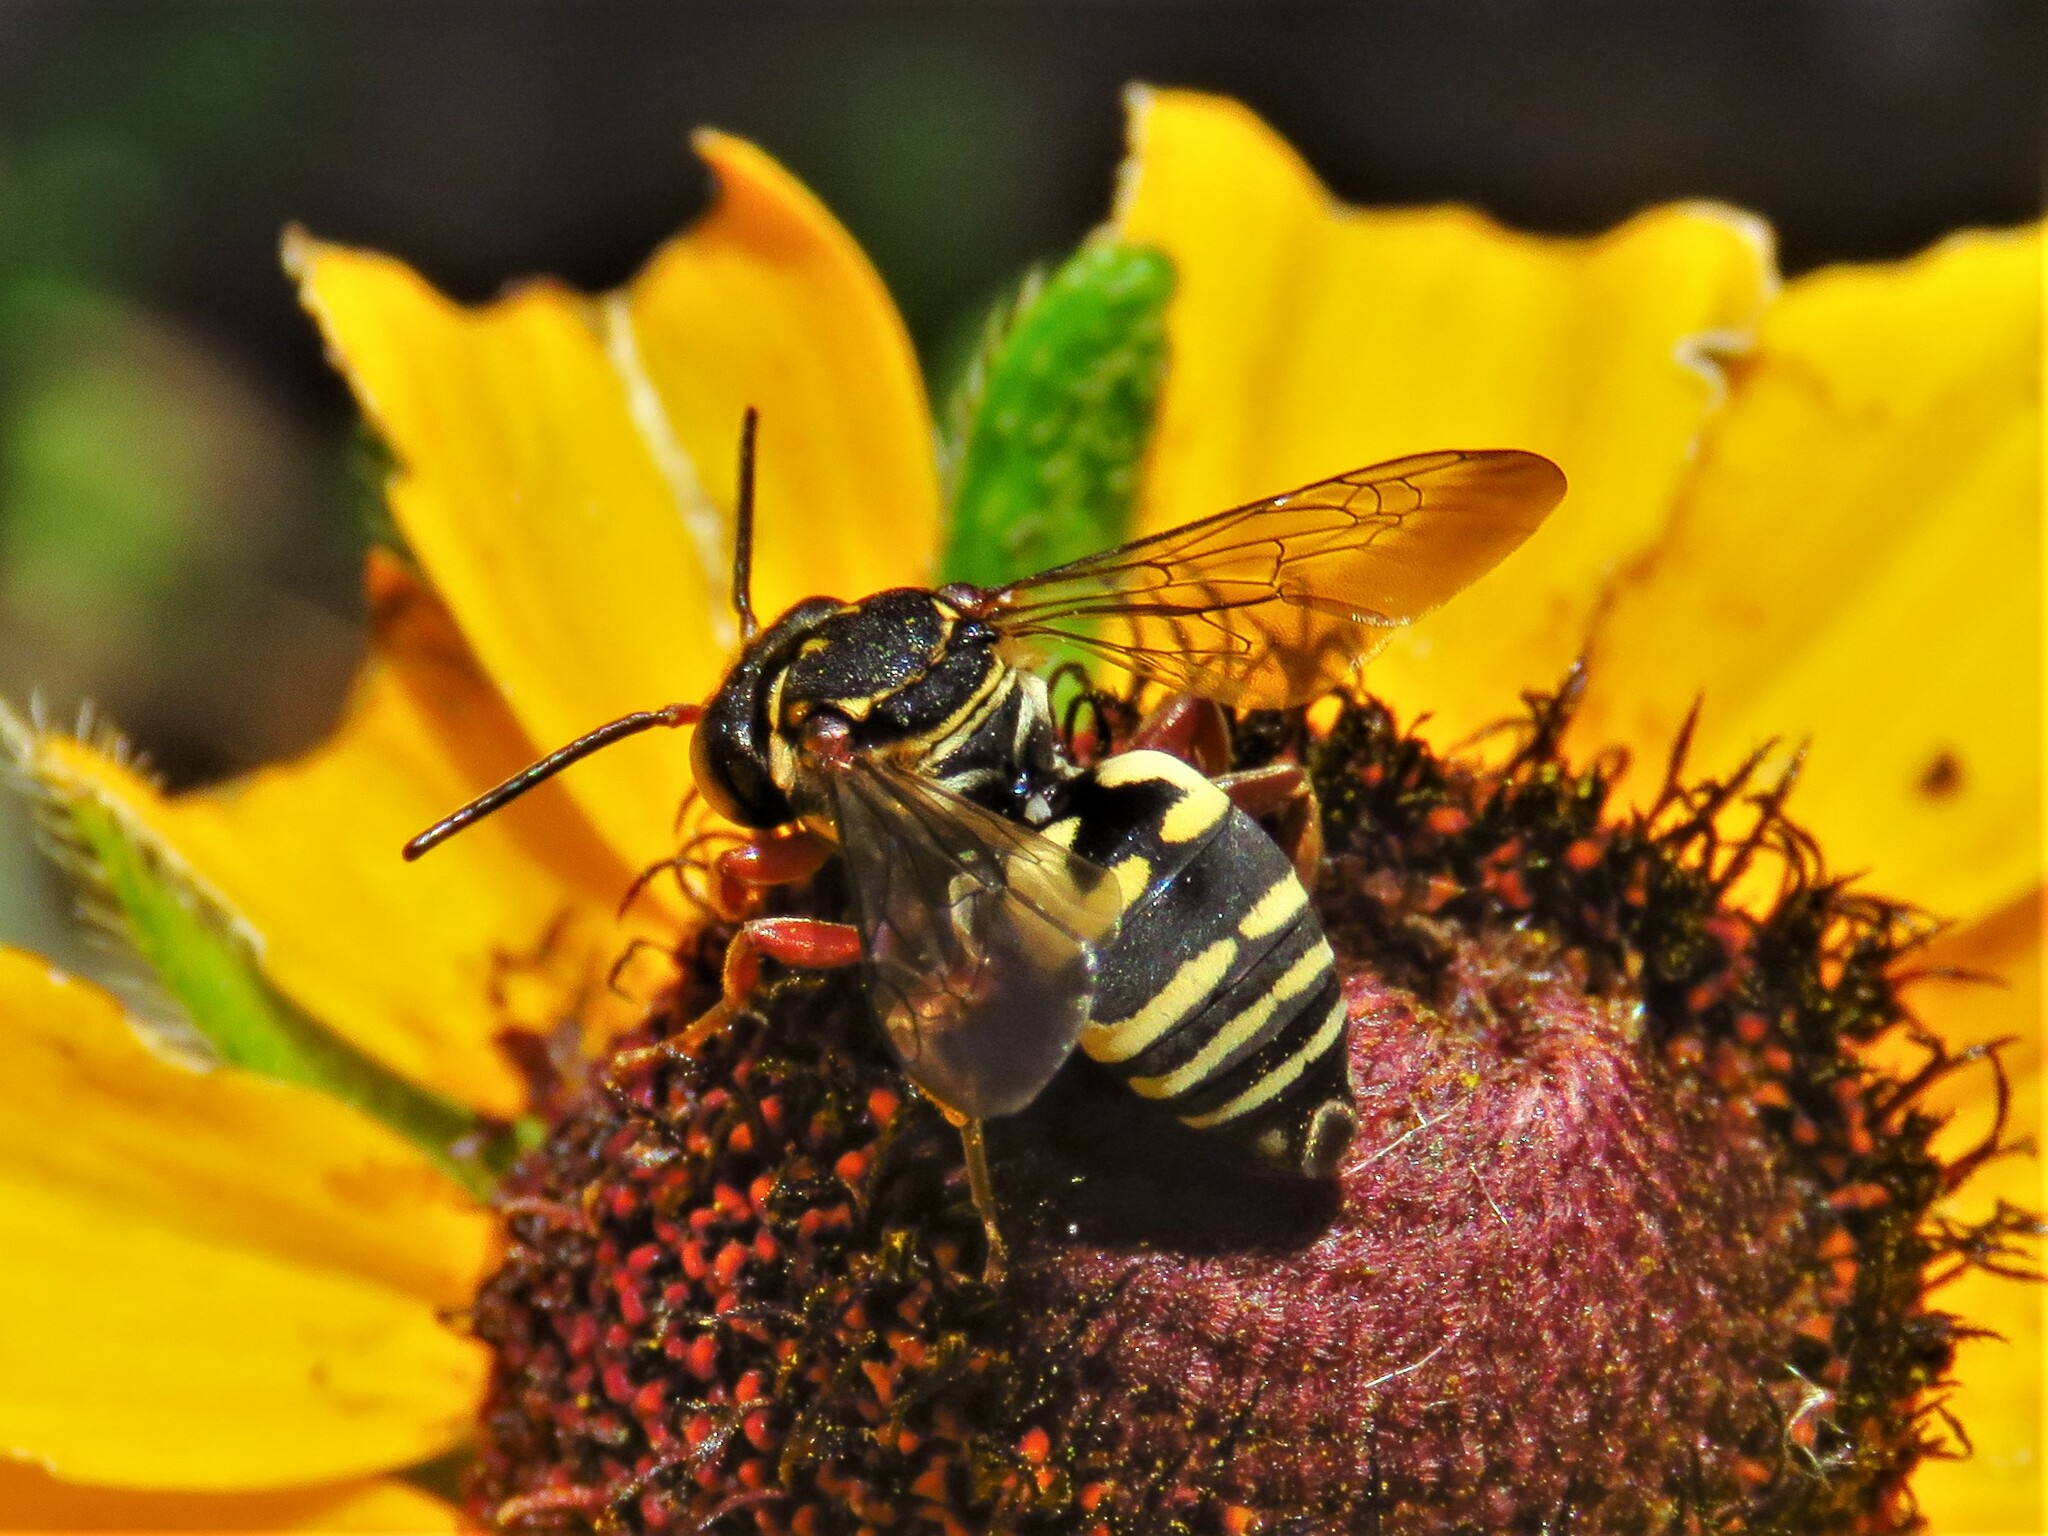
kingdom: Animalia
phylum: Arthropoda
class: Insecta
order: Hymenoptera
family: Apidae
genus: Triepeolus
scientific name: Triepeolus lunatus
